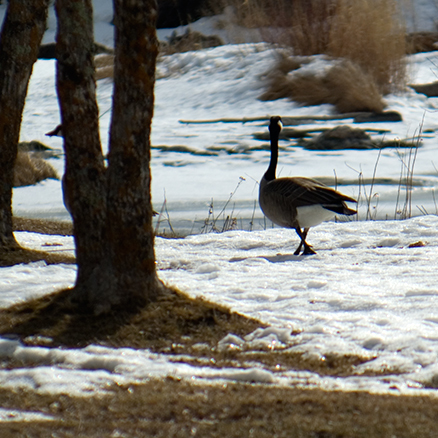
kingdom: Animalia
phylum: Chordata
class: Aves
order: Anseriformes
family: Anatidae
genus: Branta
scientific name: Branta canadensis
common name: Canada goose
